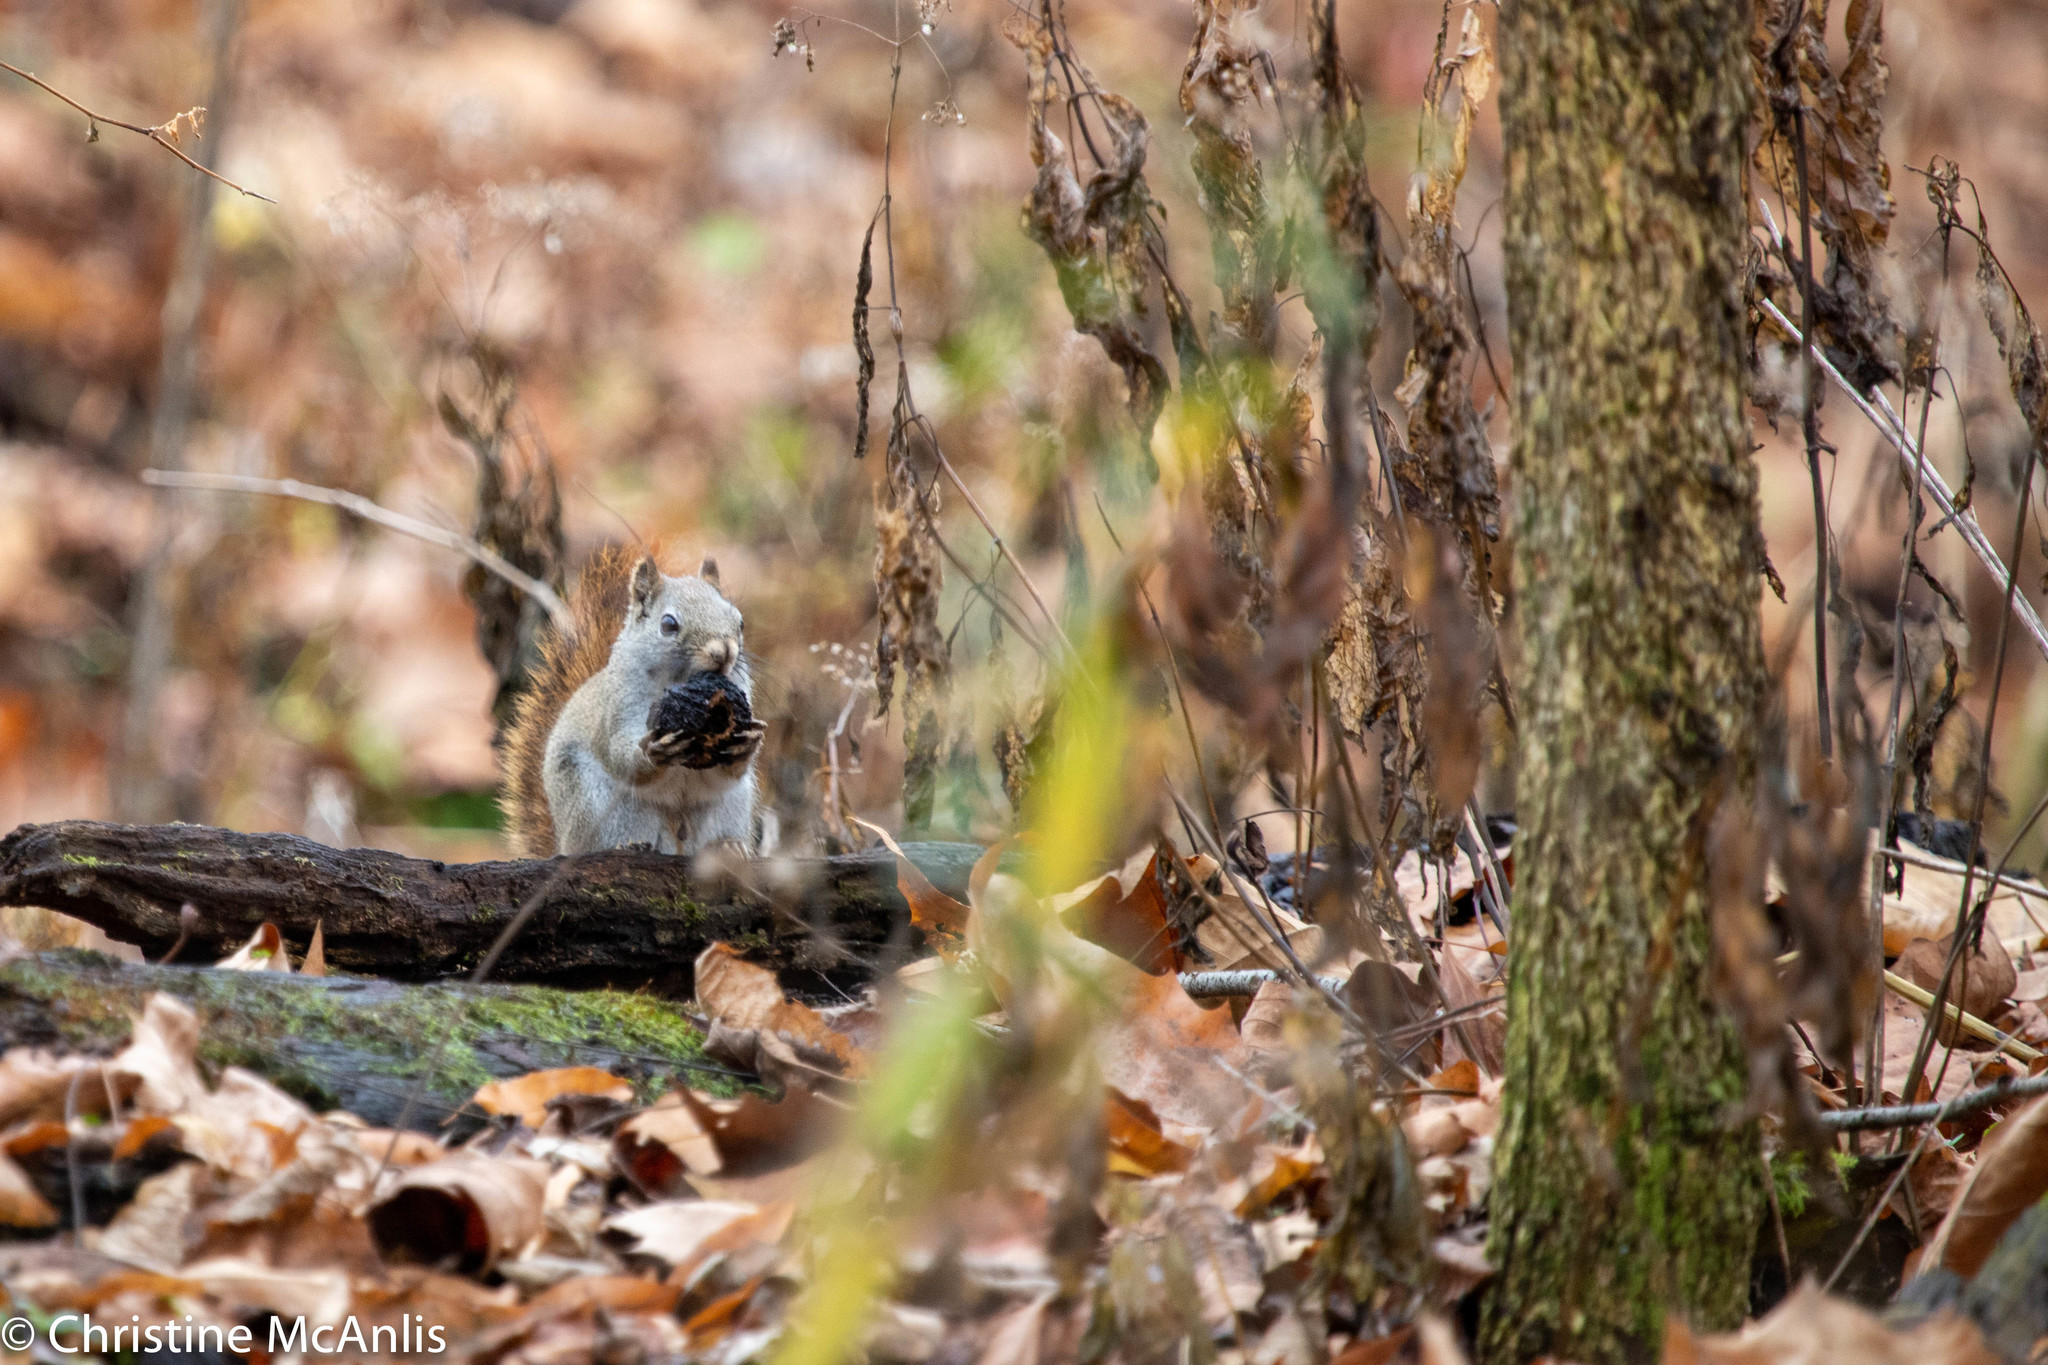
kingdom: Animalia
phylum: Chordata
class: Mammalia
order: Rodentia
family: Sciuridae
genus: Sciurus
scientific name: Sciurus carolinensis
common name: Eastern gray squirrel
